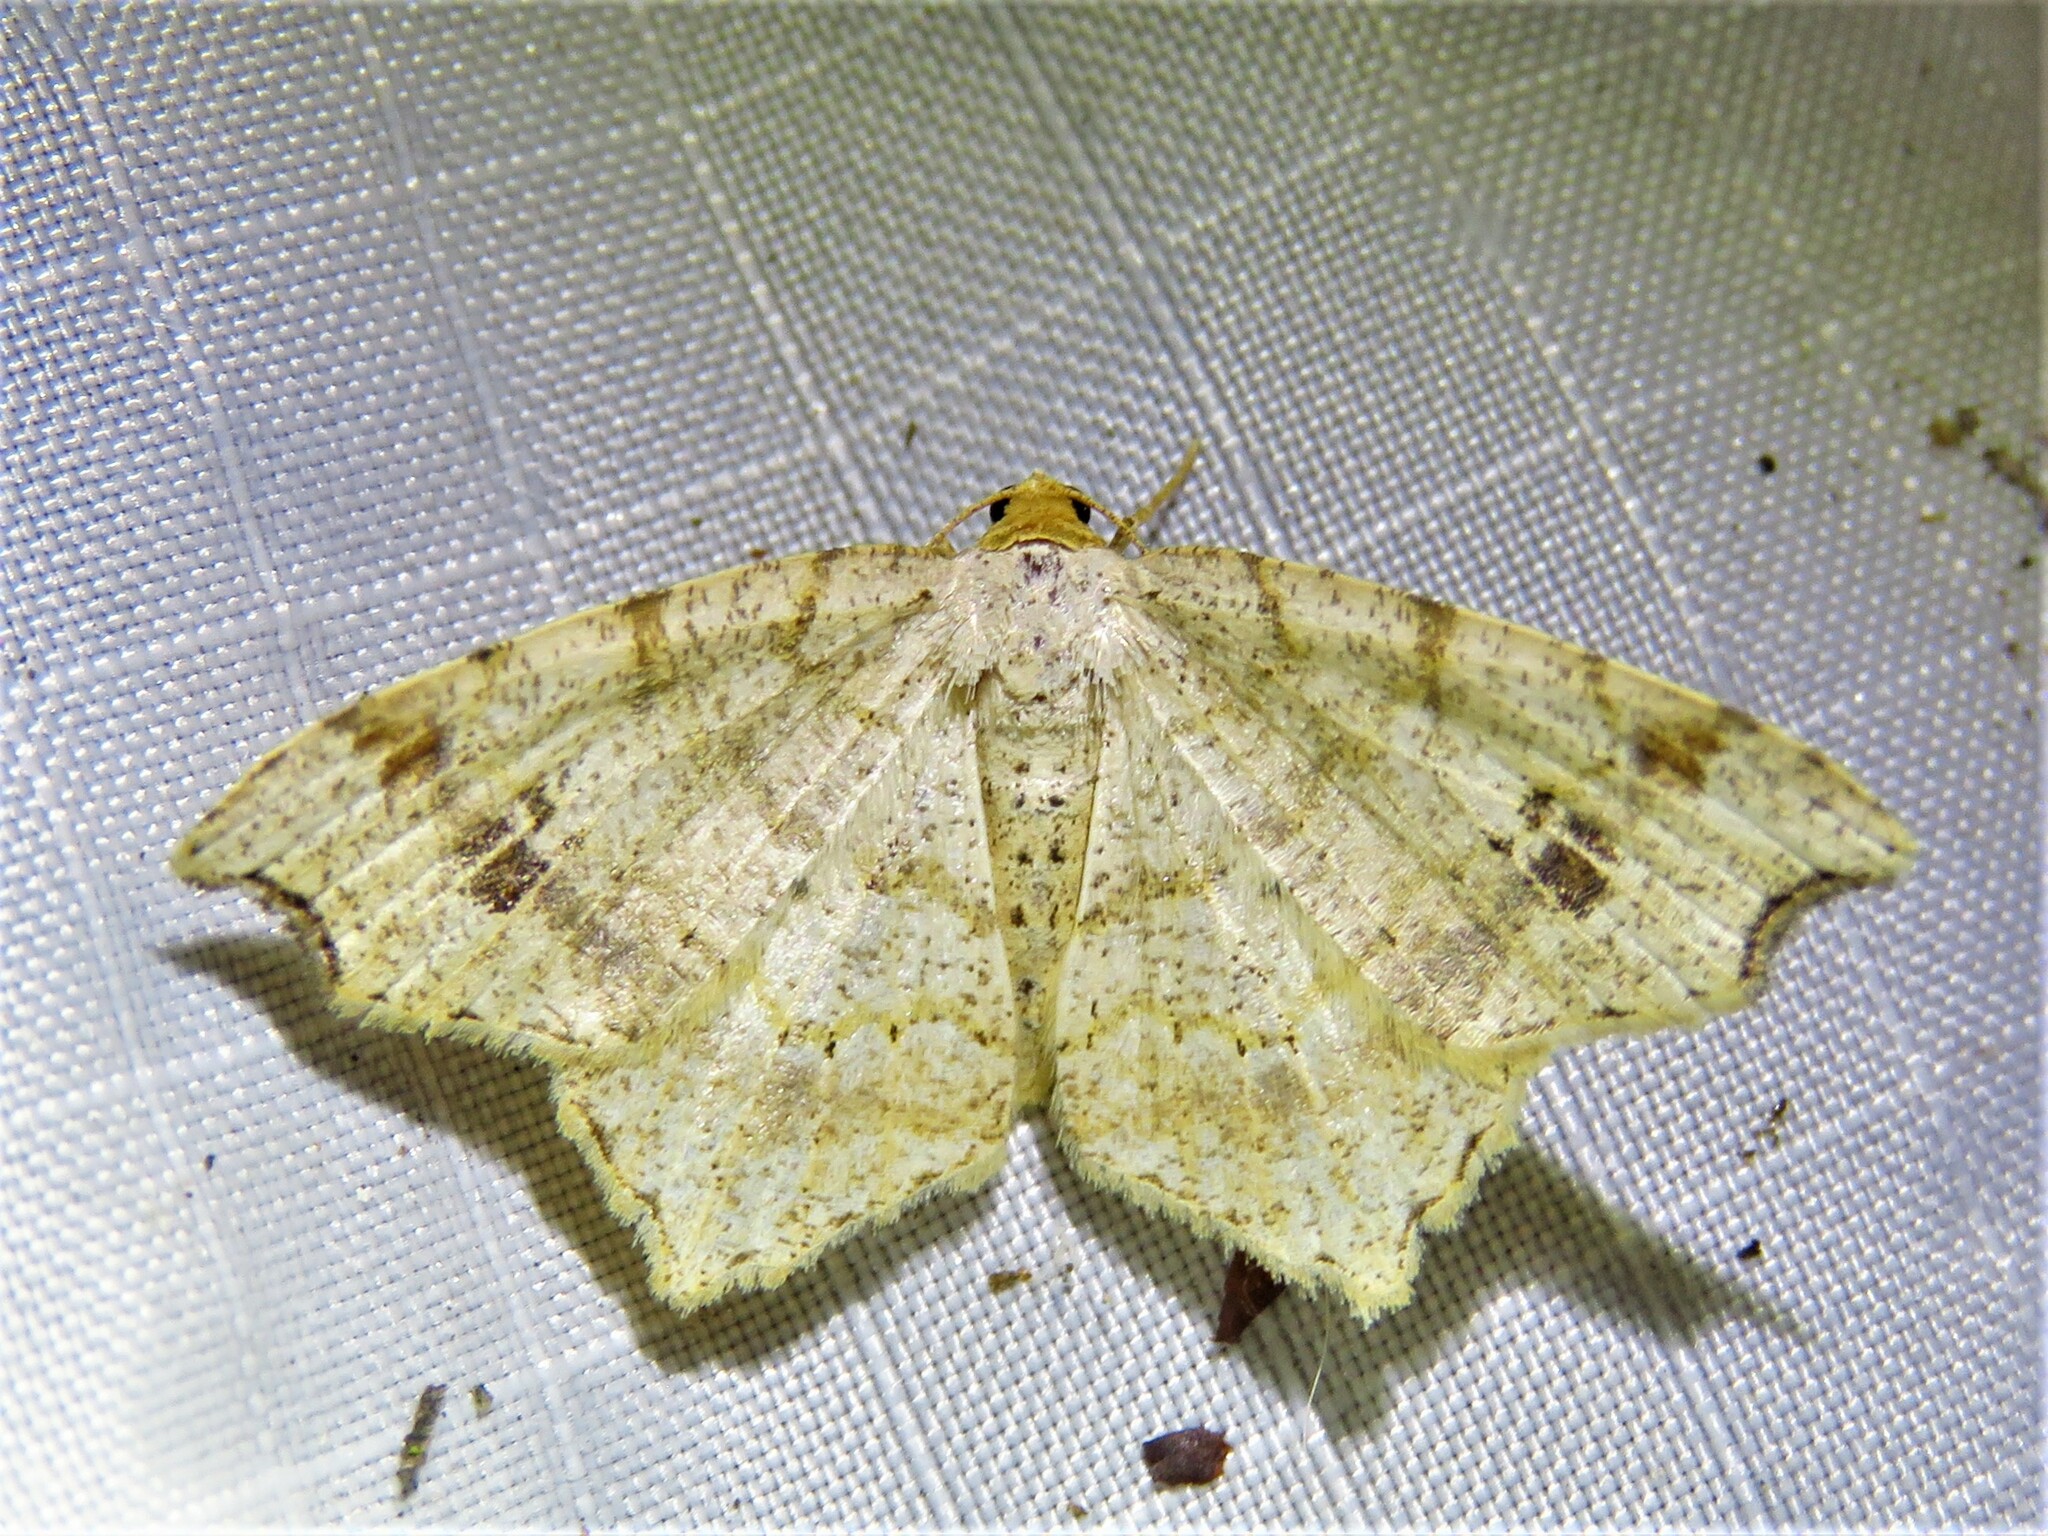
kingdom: Animalia
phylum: Arthropoda
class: Insecta
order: Lepidoptera
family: Geometridae
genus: Macaria
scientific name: Macaria aemulataria
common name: Common angle
